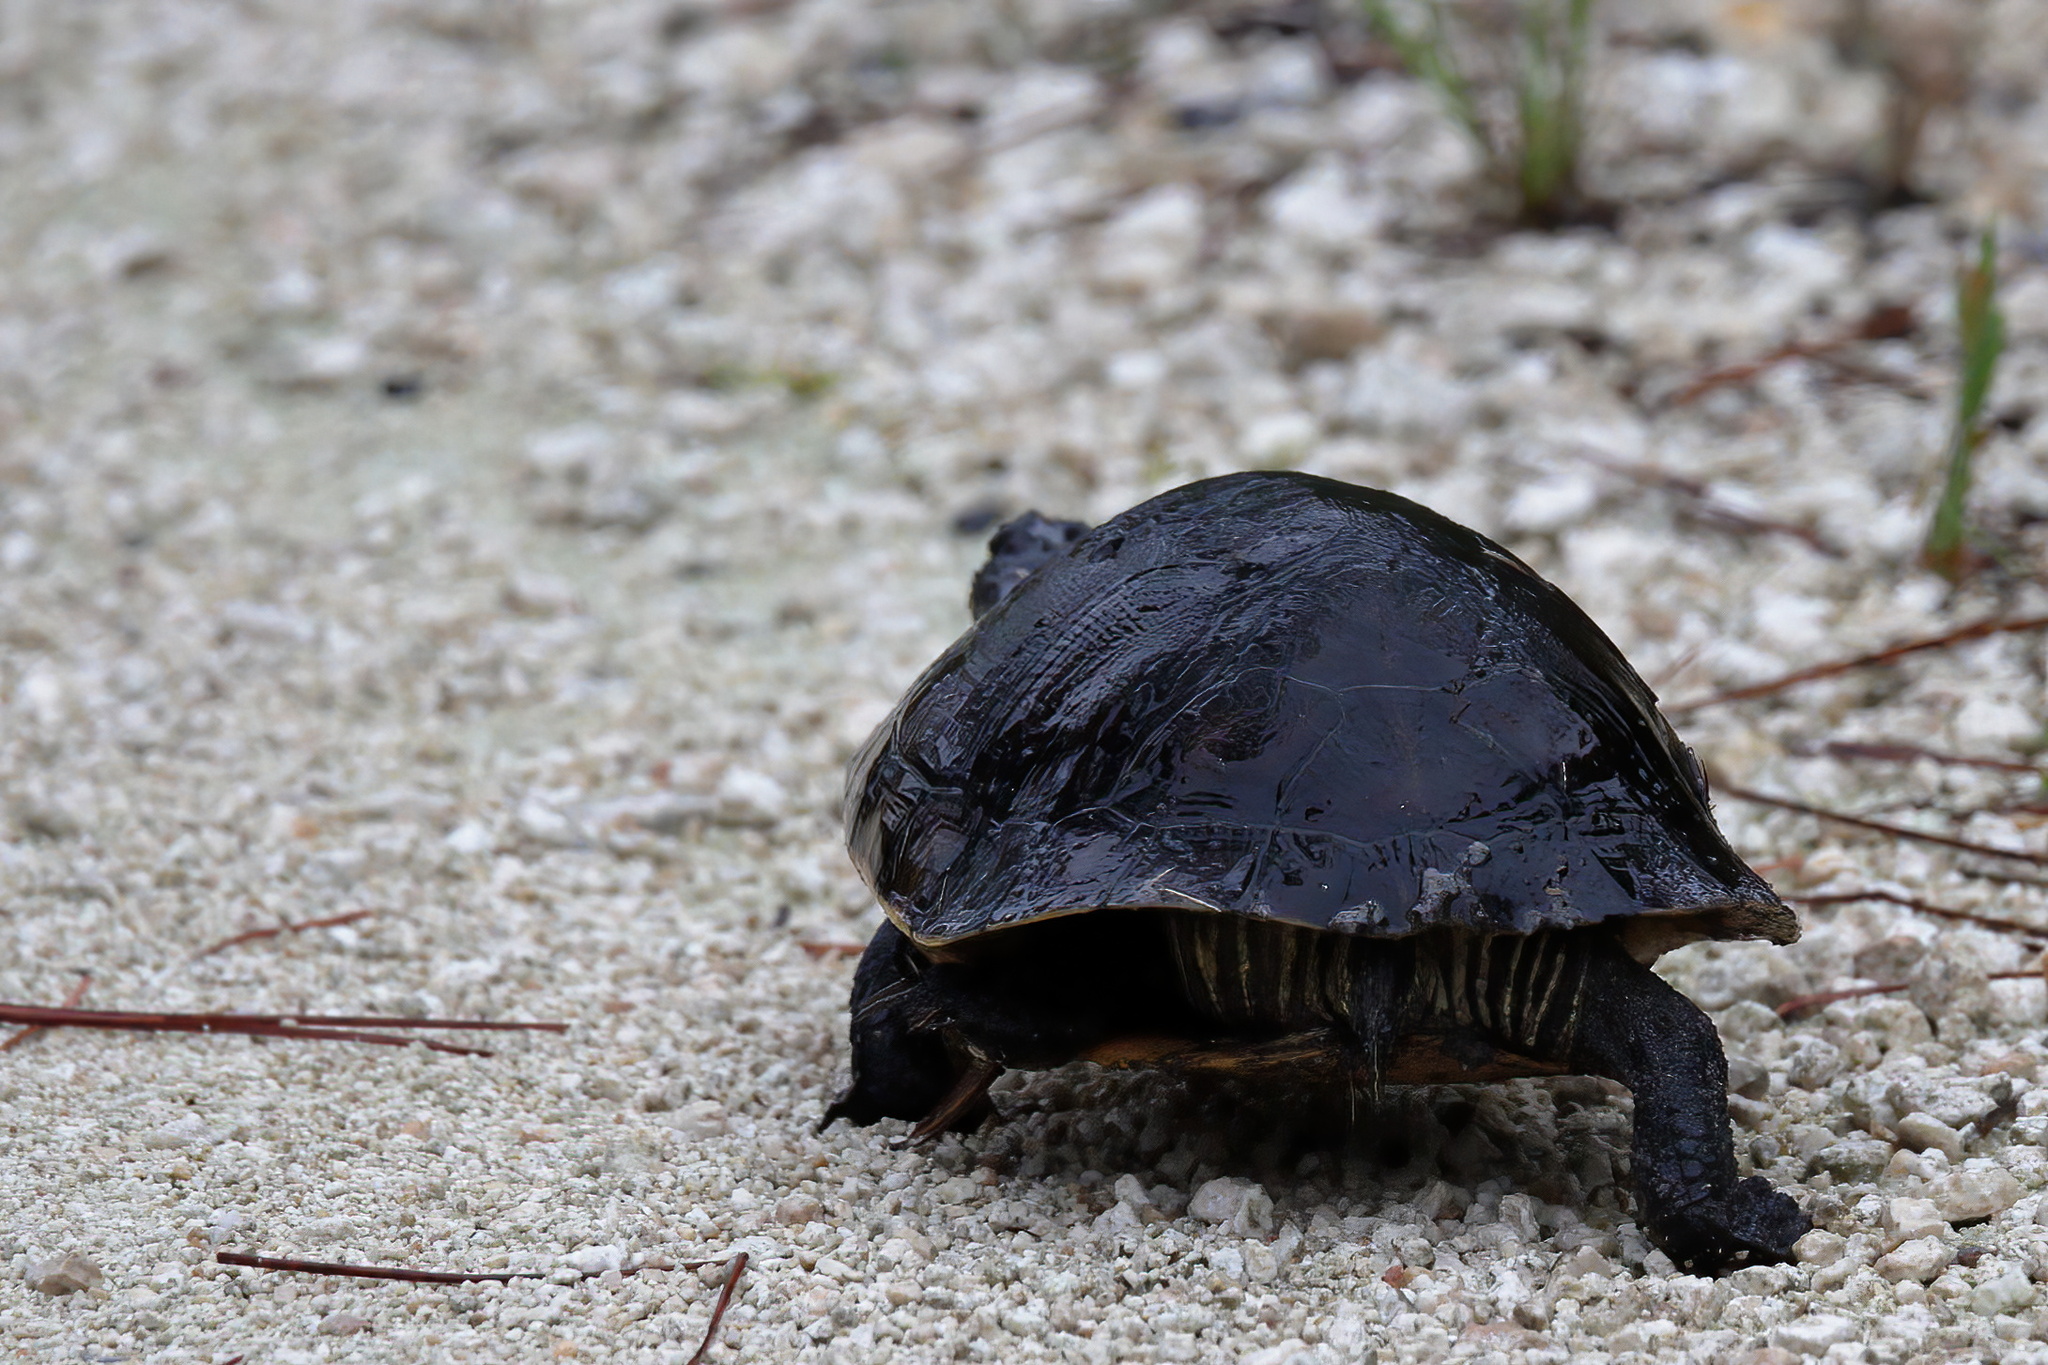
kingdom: Animalia
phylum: Chordata
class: Testudines
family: Emydidae
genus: Deirochelys
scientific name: Deirochelys reticularia
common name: Chicken turtle
